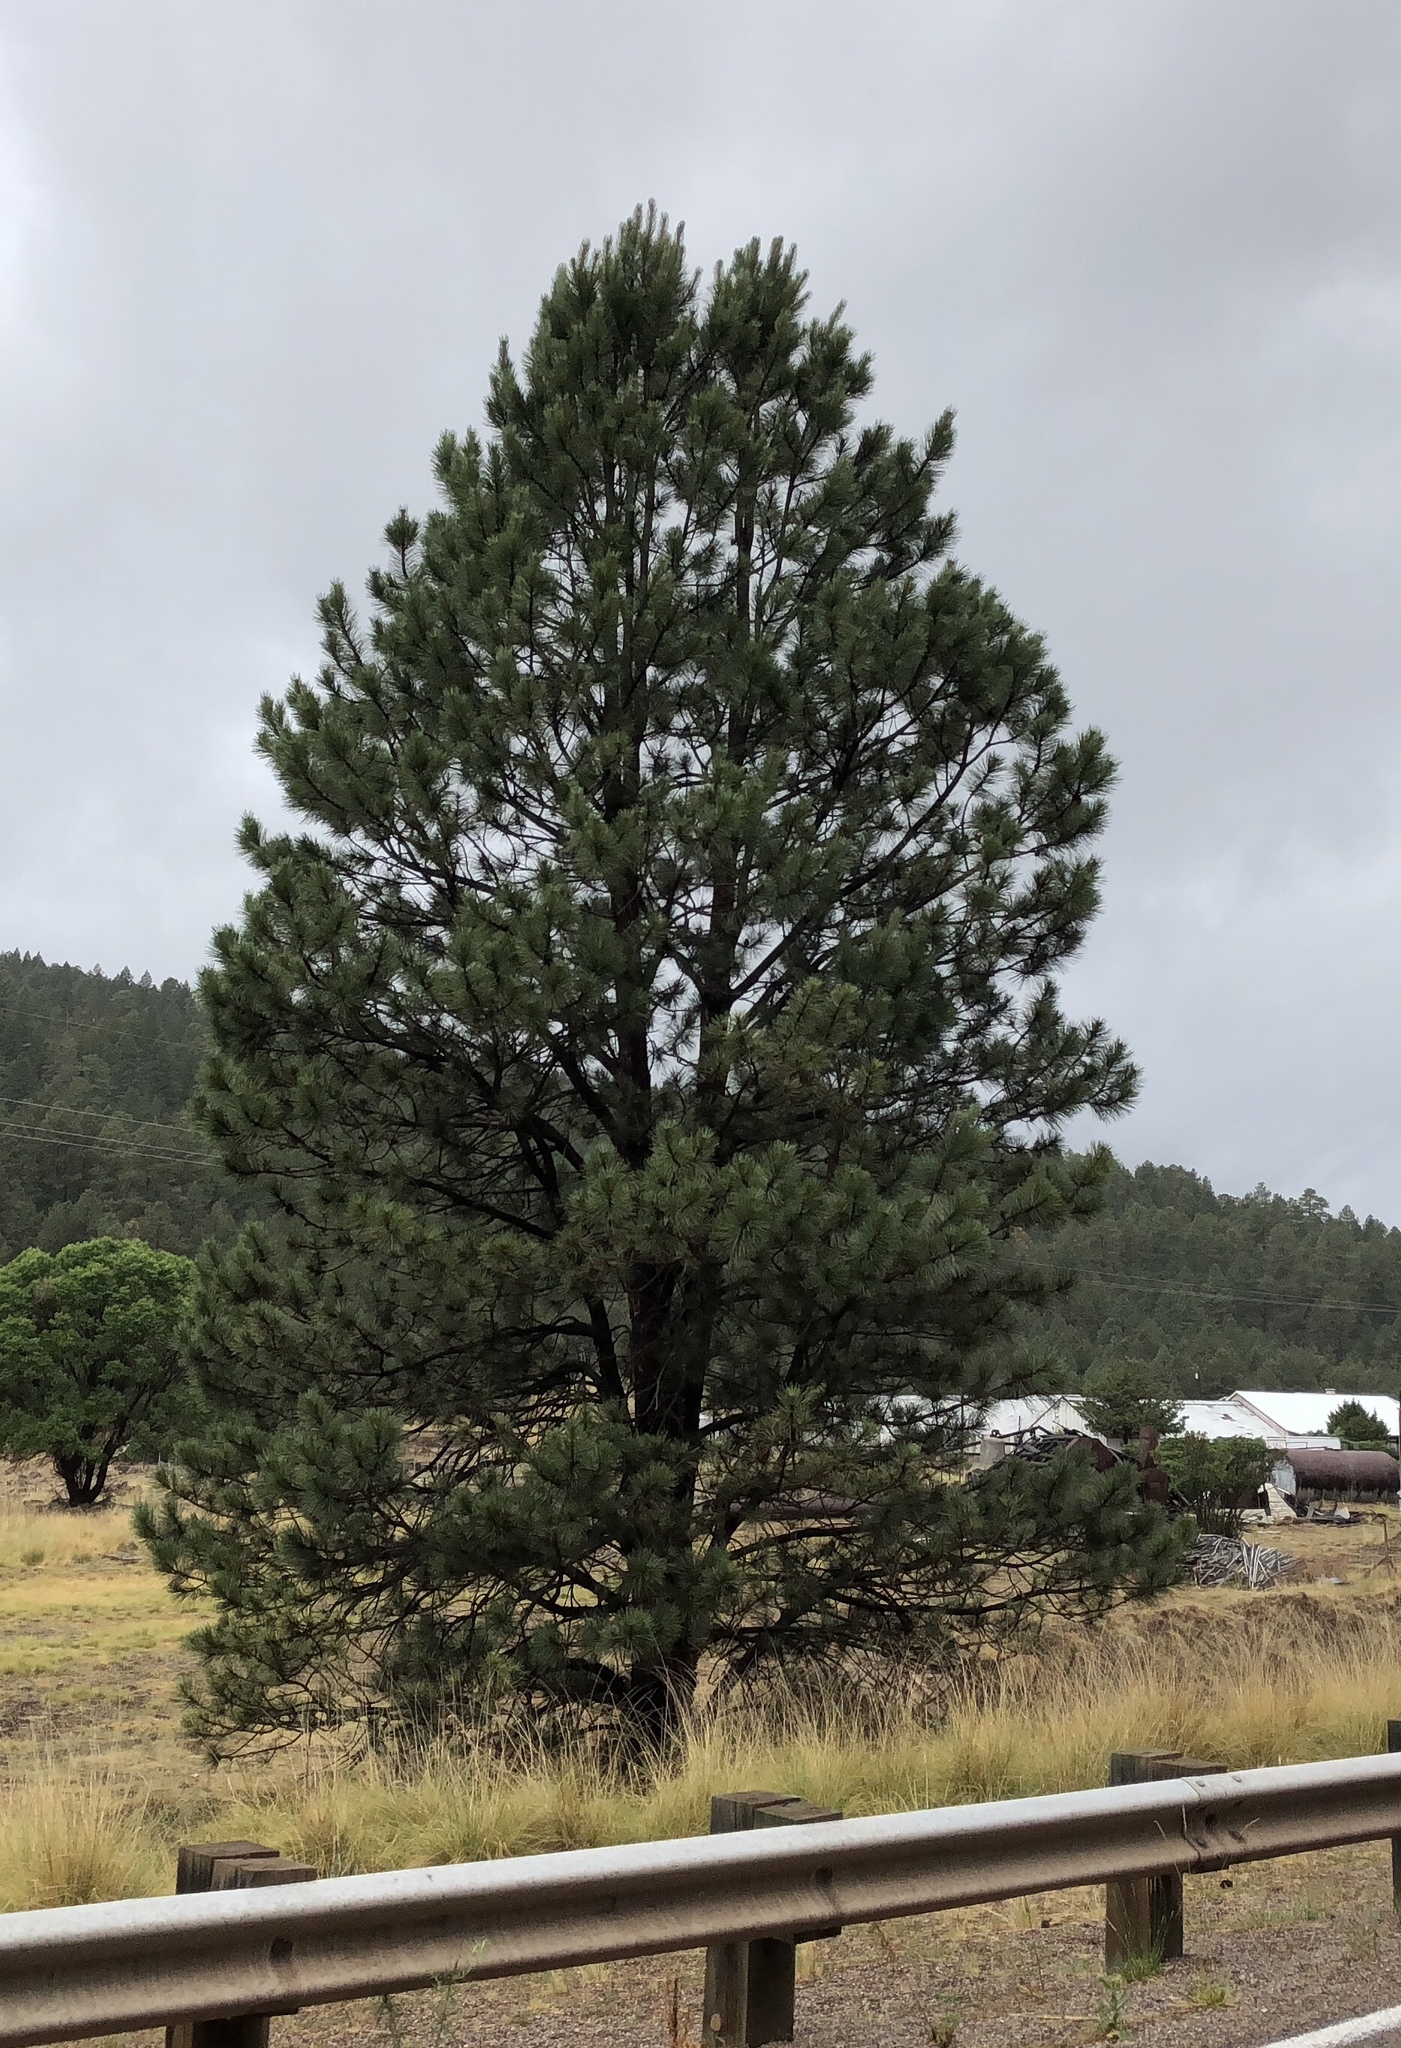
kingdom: Plantae
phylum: Tracheophyta
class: Pinopsida
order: Pinales
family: Pinaceae
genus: Pinus
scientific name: Pinus ponderosa
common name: Western yellow-pine
